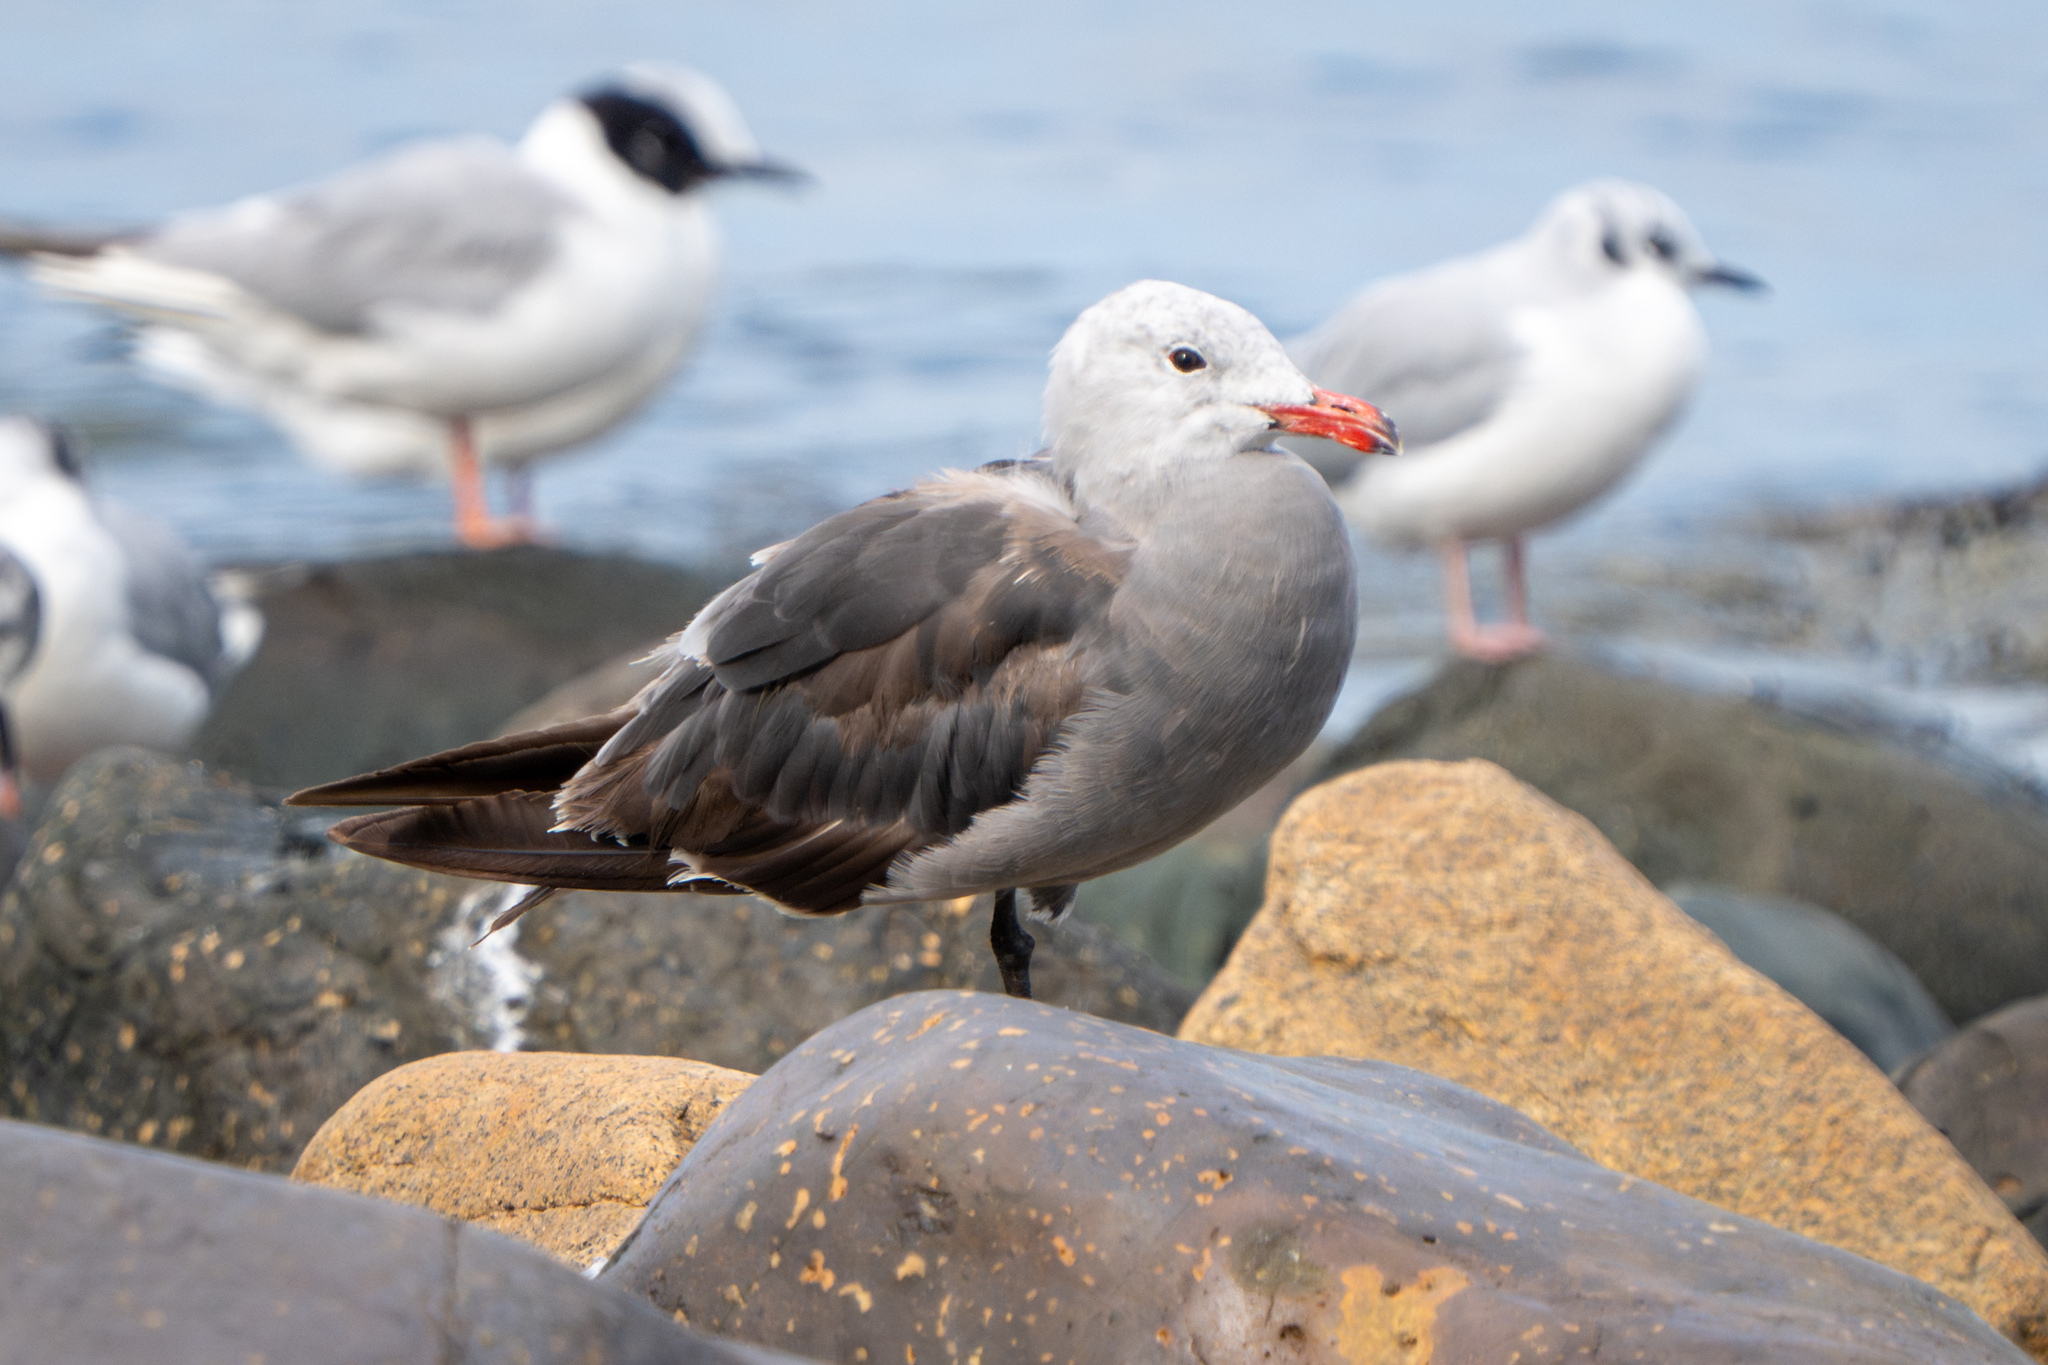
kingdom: Animalia
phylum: Chordata
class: Aves
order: Charadriiformes
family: Laridae
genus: Larus
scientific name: Larus heermanni
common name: Heermann's gull
